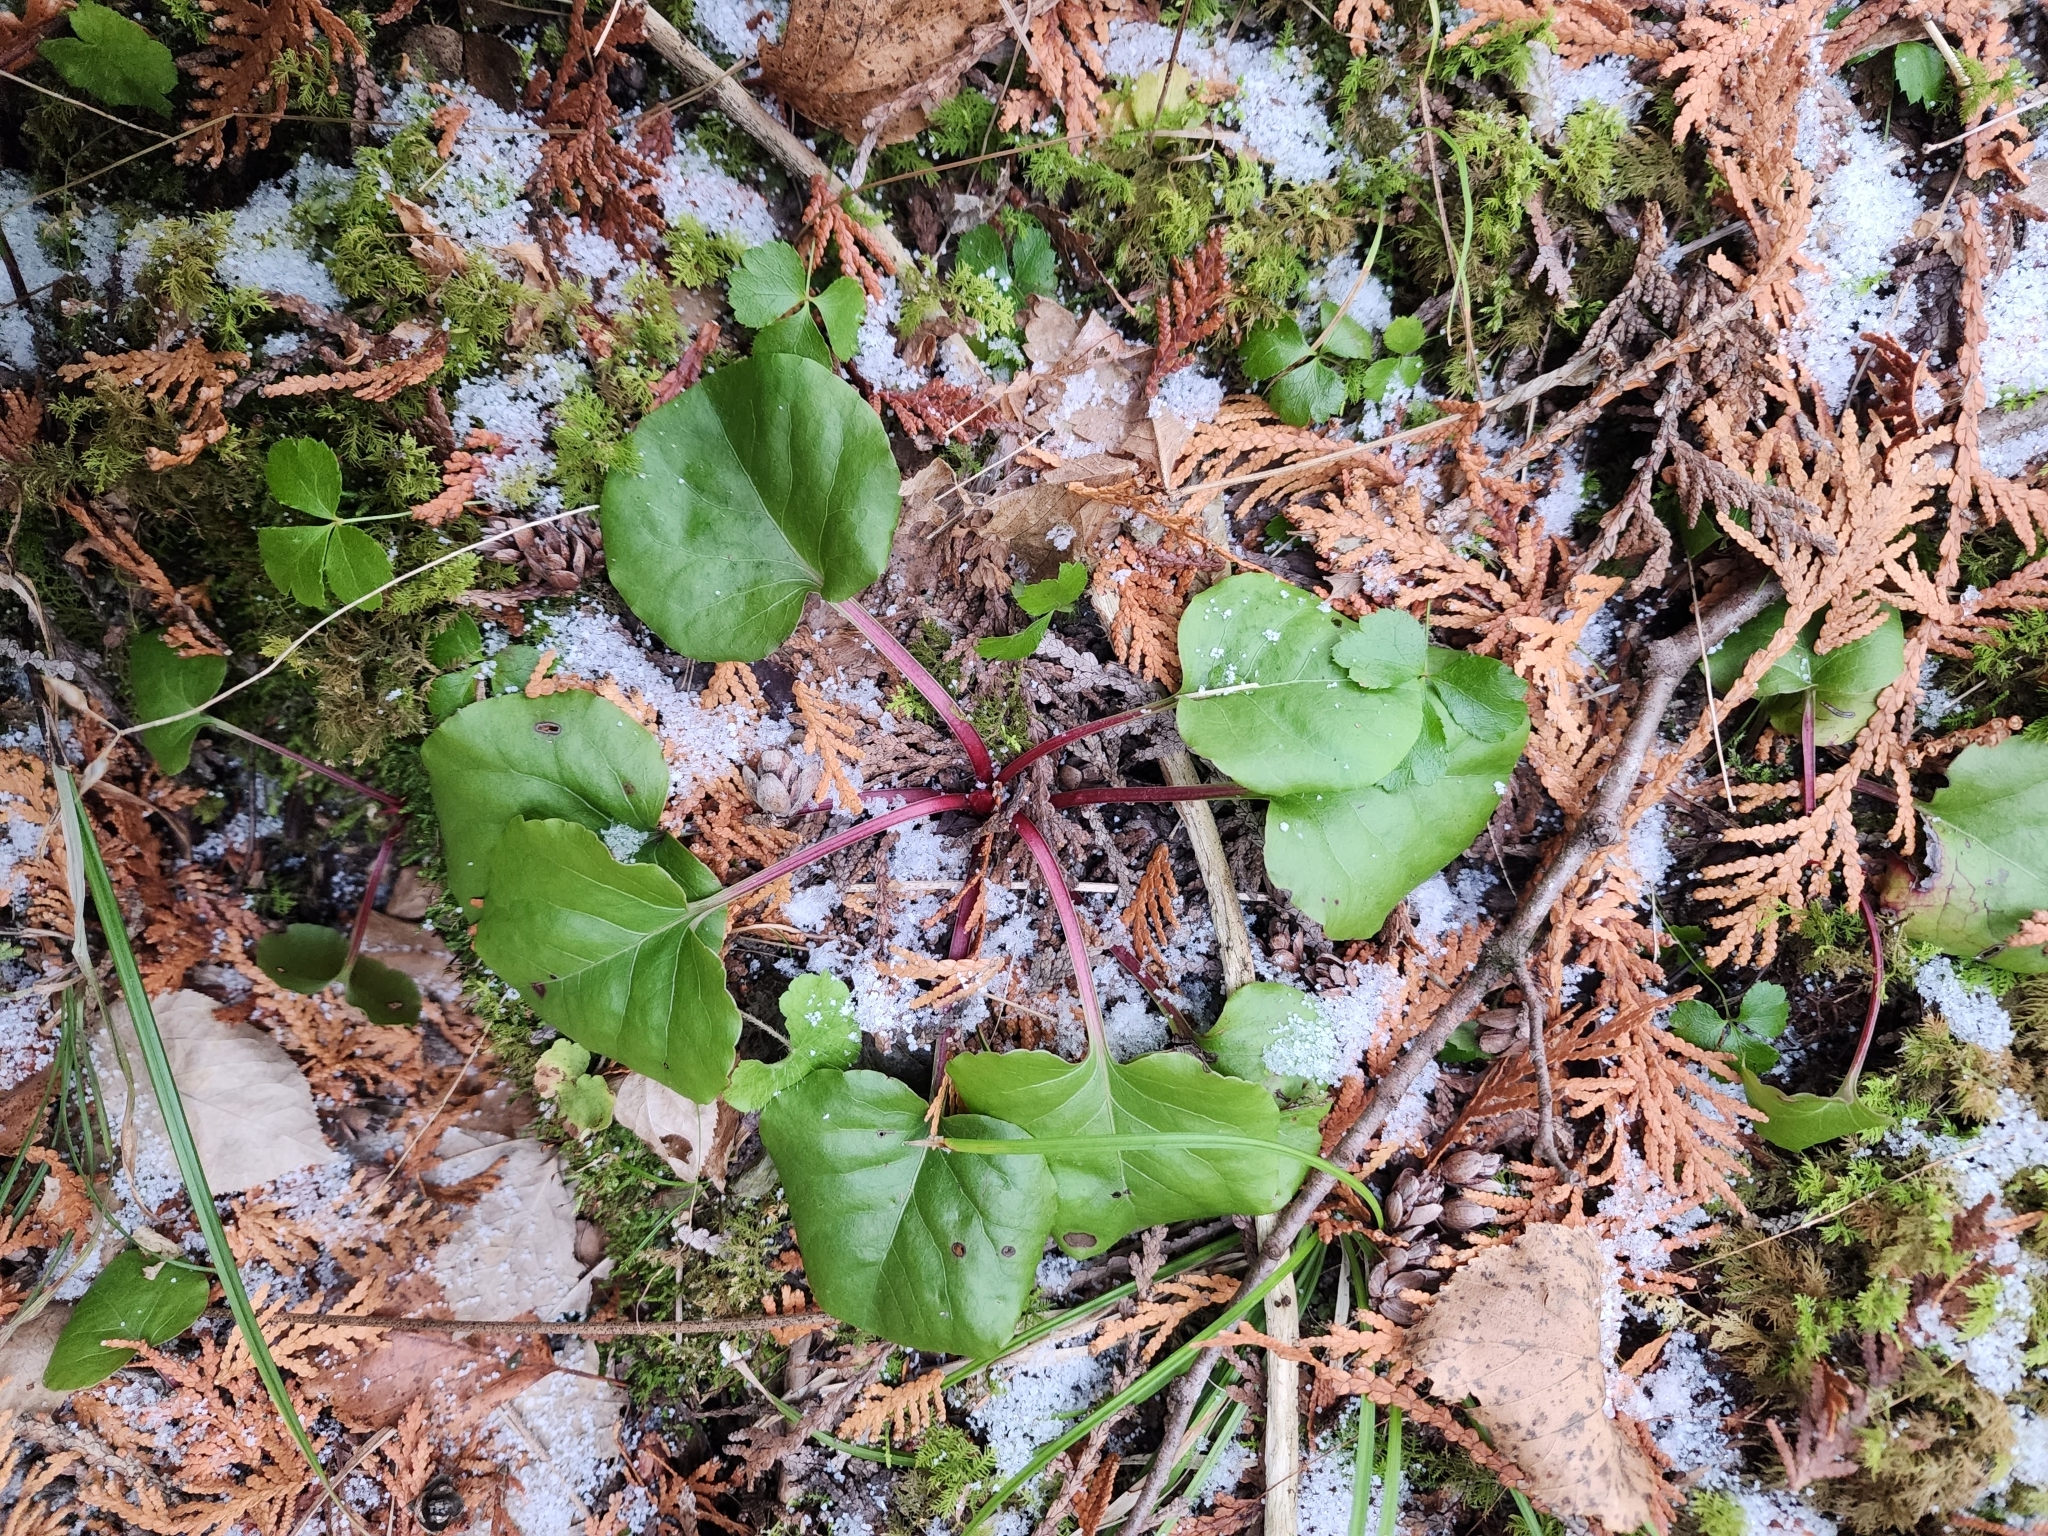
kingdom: Plantae
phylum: Tracheophyta
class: Magnoliopsida
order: Ericales
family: Ericaceae
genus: Pyrola
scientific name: Pyrola asarifolia
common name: Bog wintergreen
